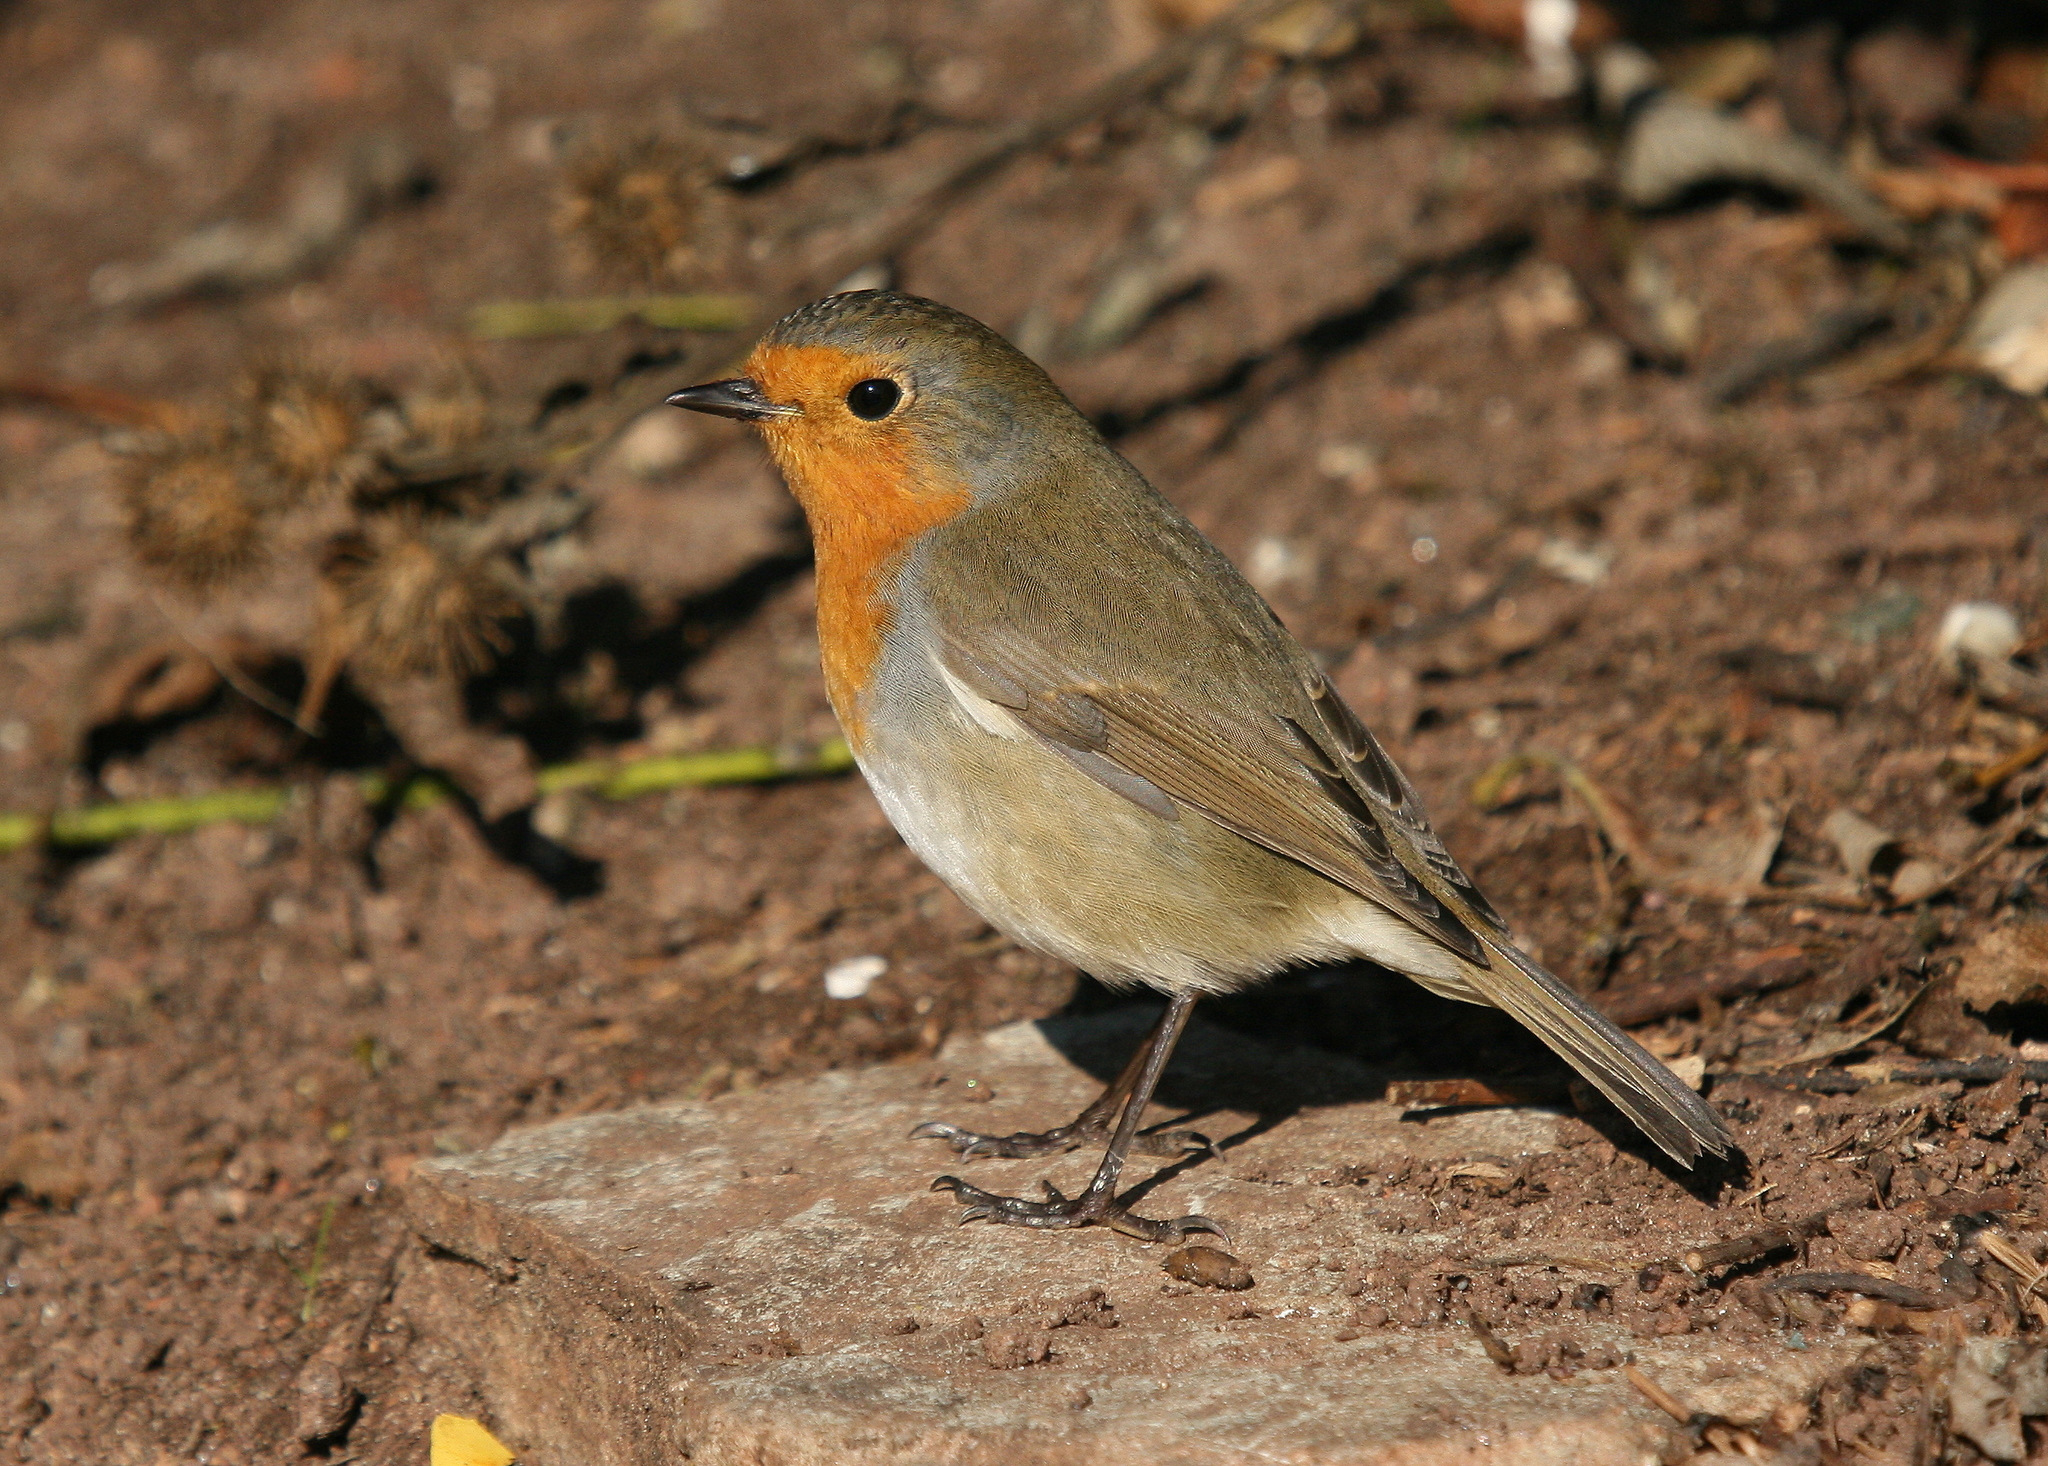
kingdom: Animalia
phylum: Chordata
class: Aves
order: Passeriformes
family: Muscicapidae
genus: Erithacus
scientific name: Erithacus rubecula
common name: European robin
